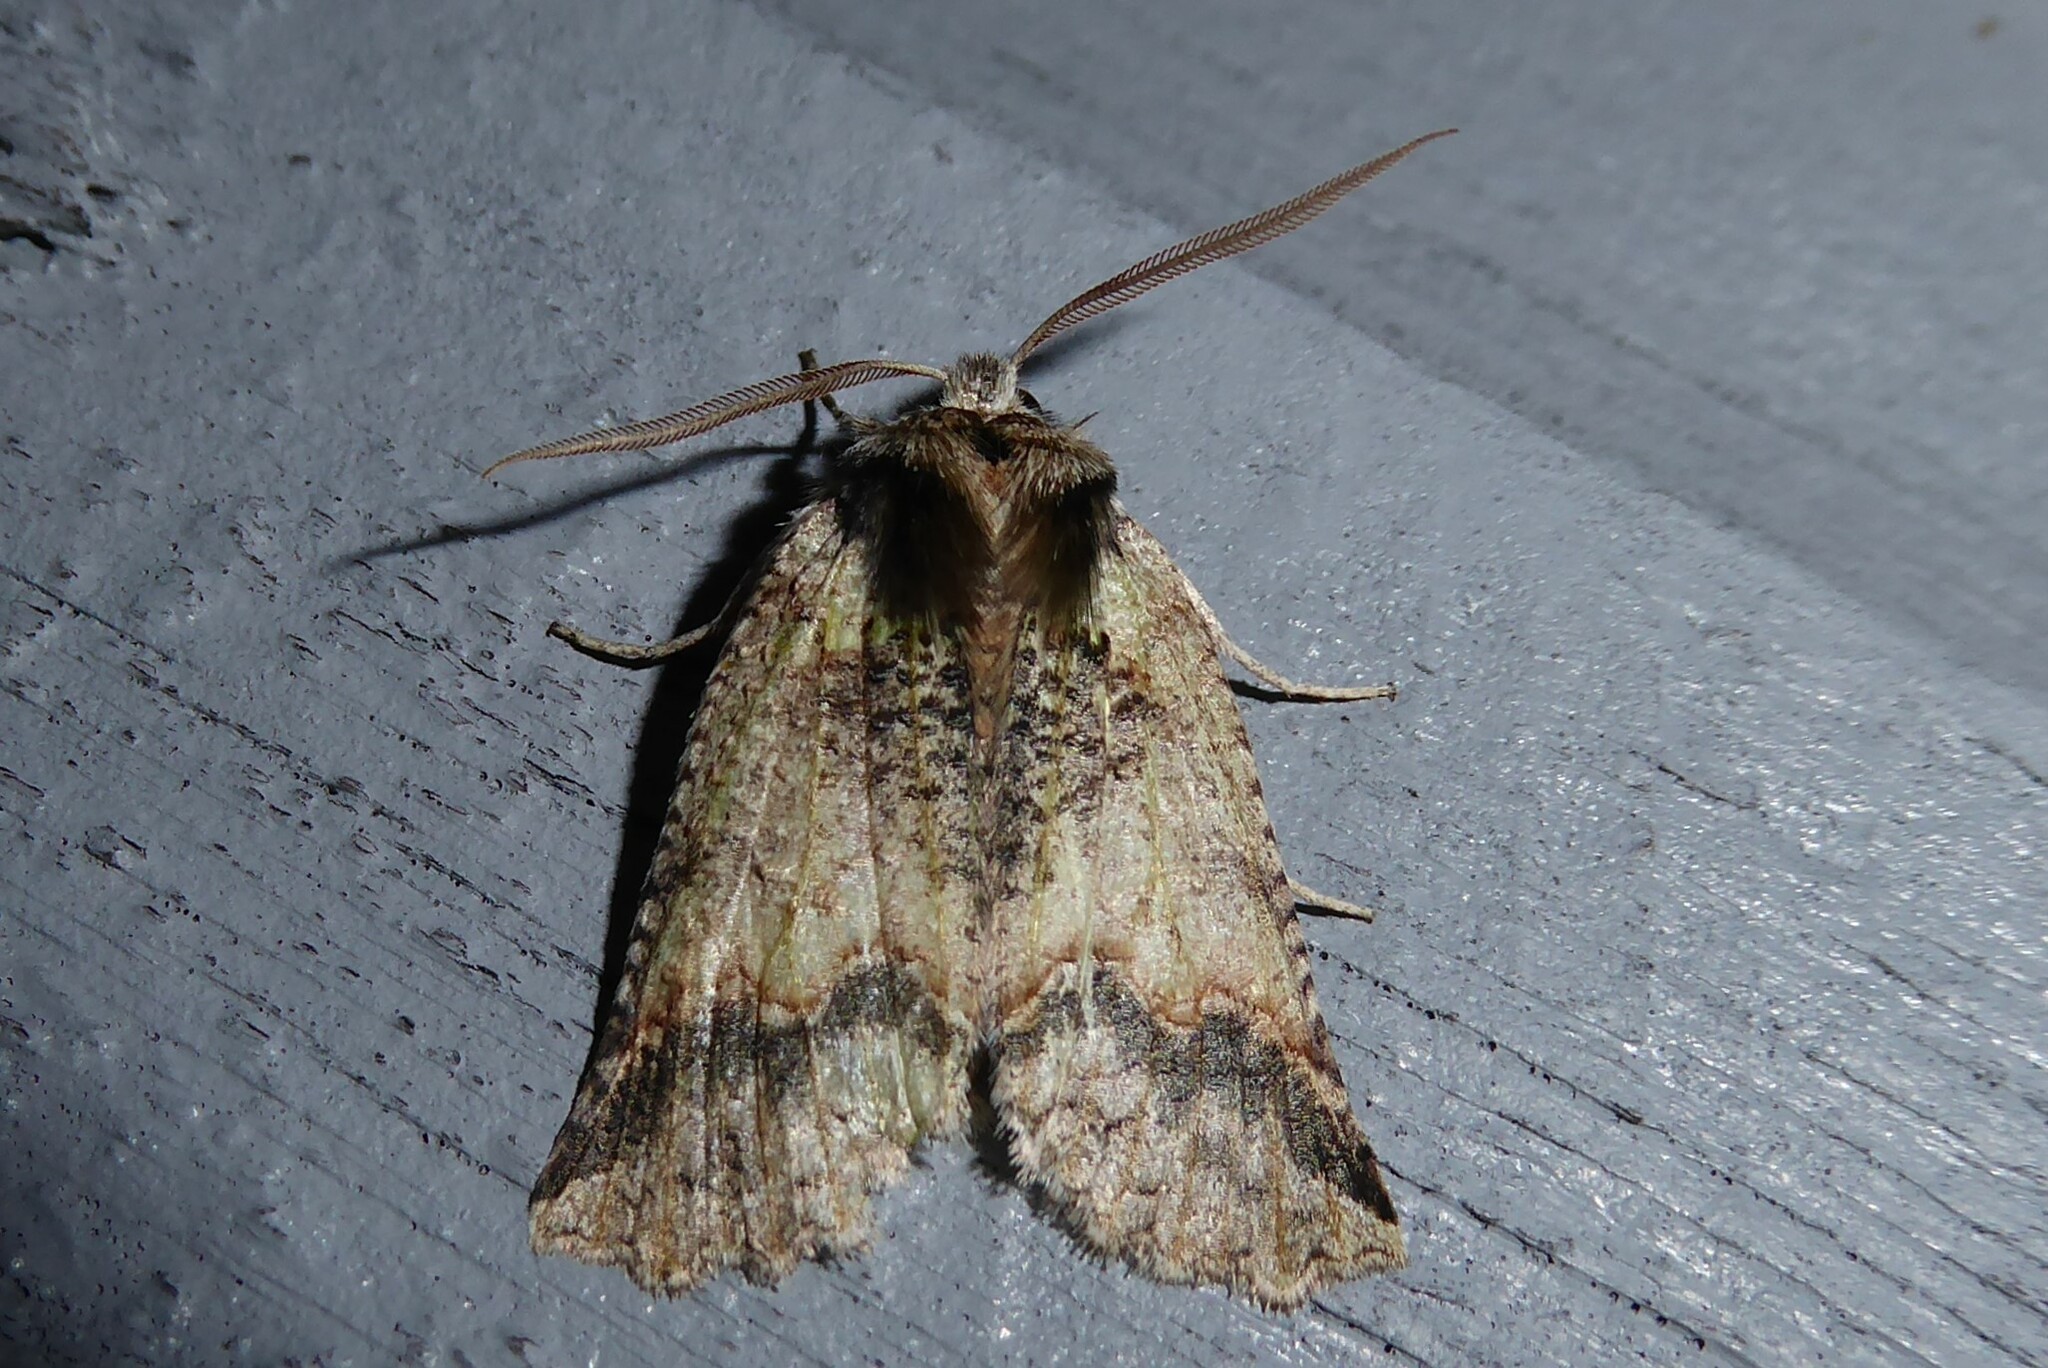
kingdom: Animalia
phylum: Arthropoda
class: Insecta
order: Lepidoptera
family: Geometridae
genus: Declana
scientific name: Declana floccosa
